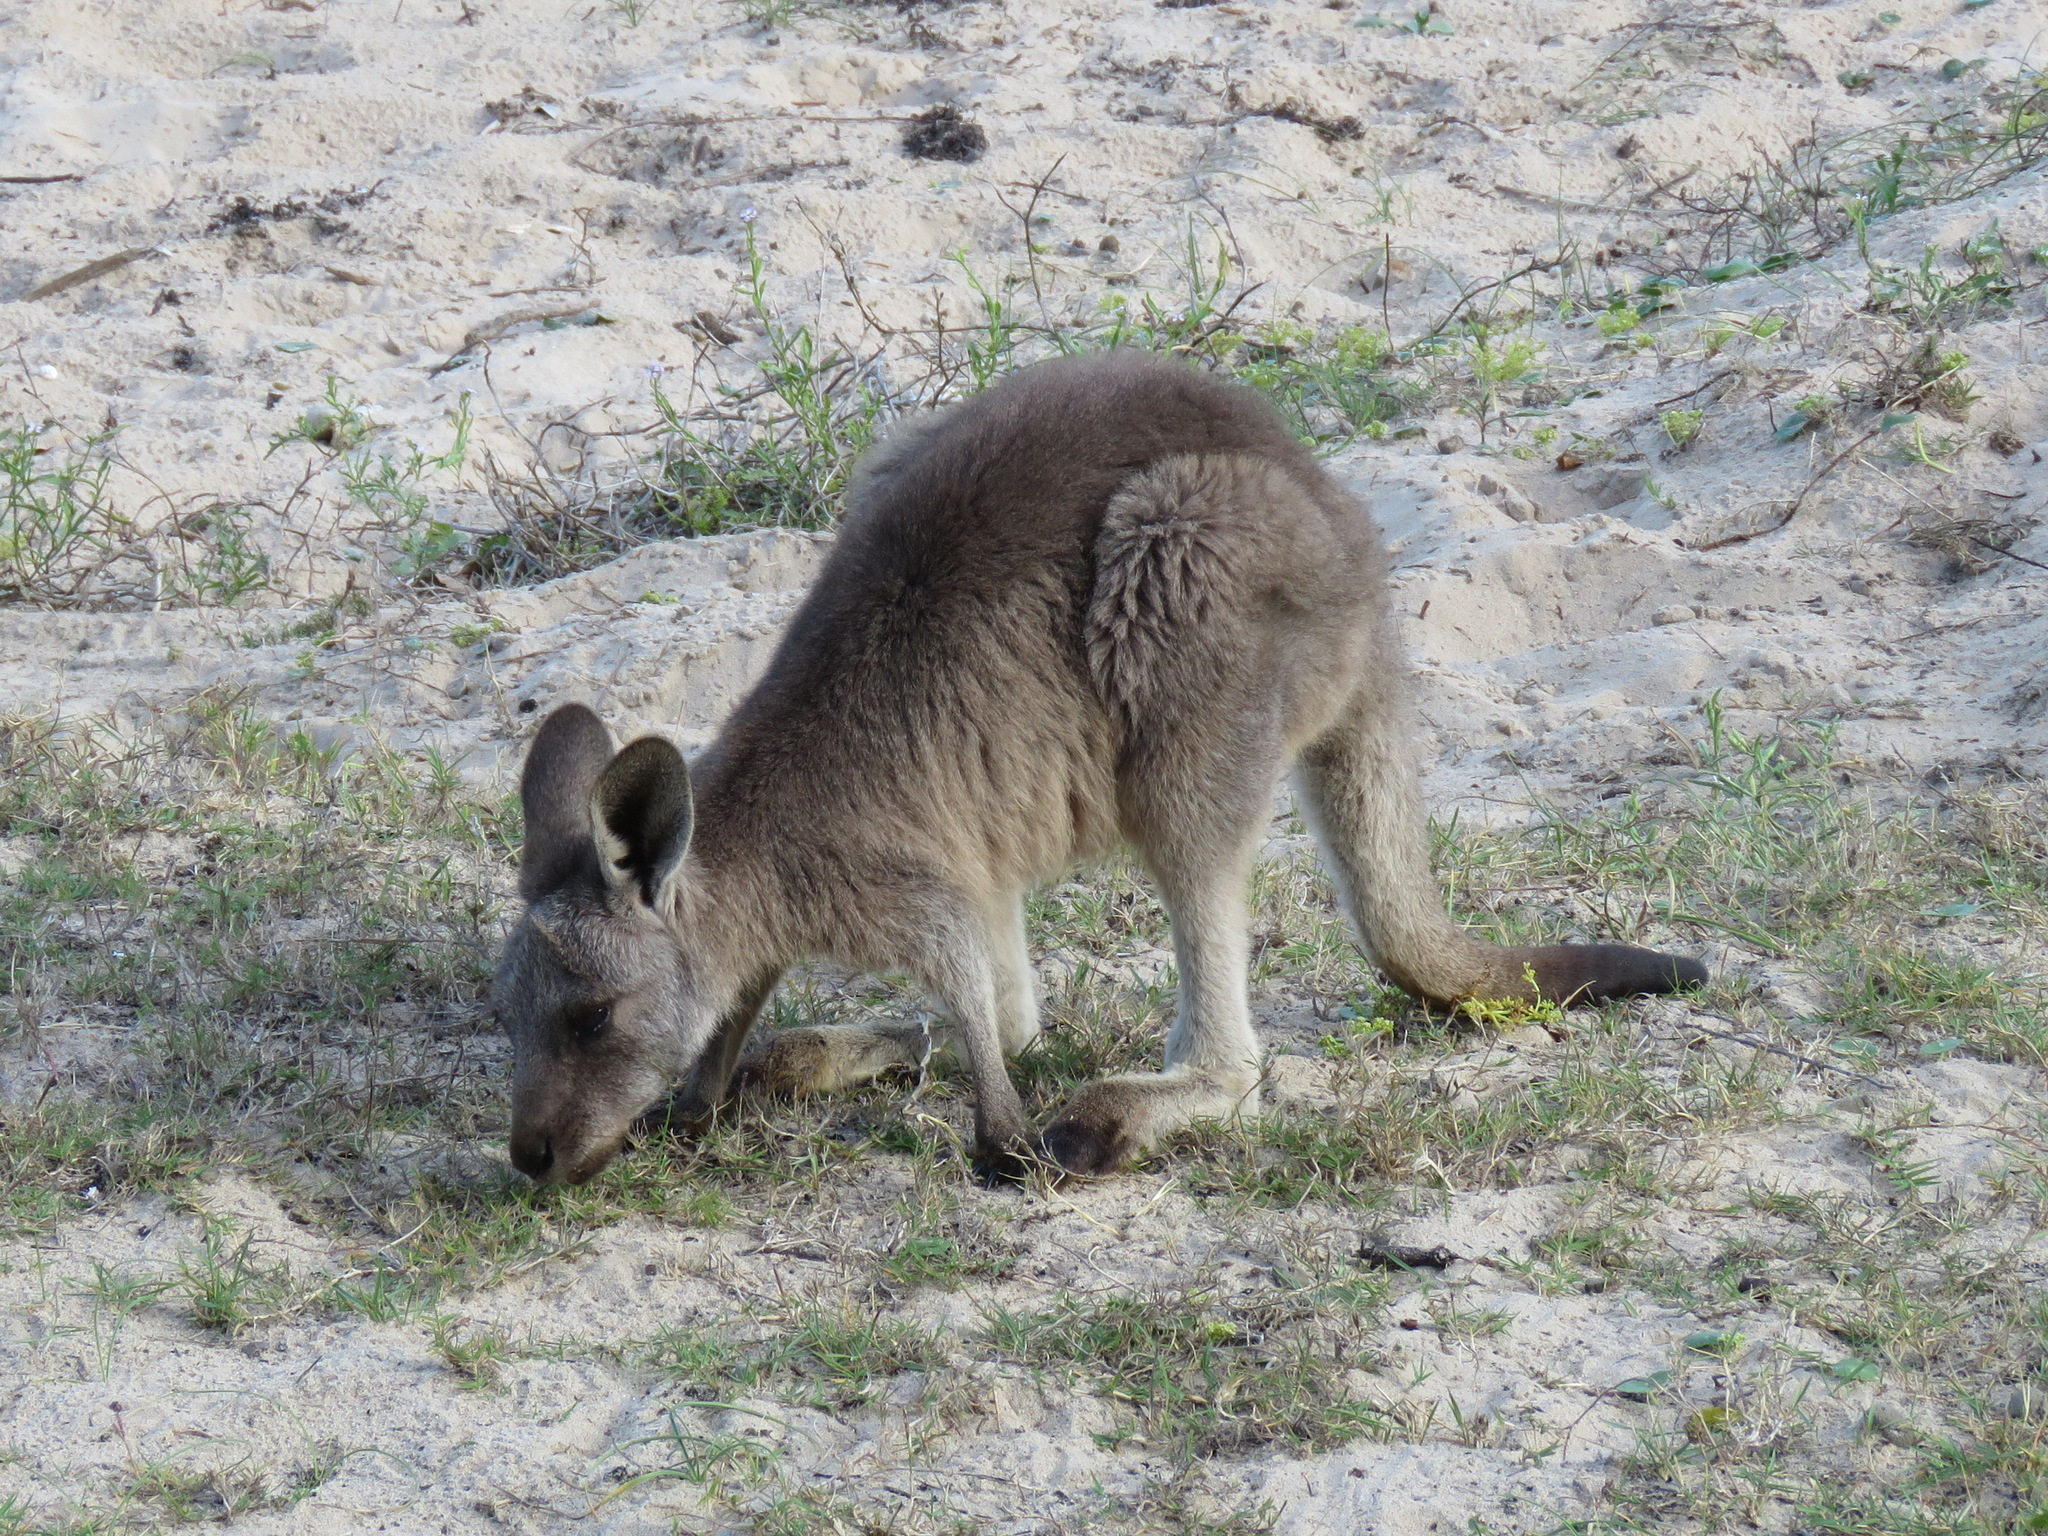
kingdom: Animalia
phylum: Chordata
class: Mammalia
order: Diprotodontia
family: Macropodidae
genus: Macropus
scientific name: Macropus giganteus
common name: Eastern grey kangaroo
